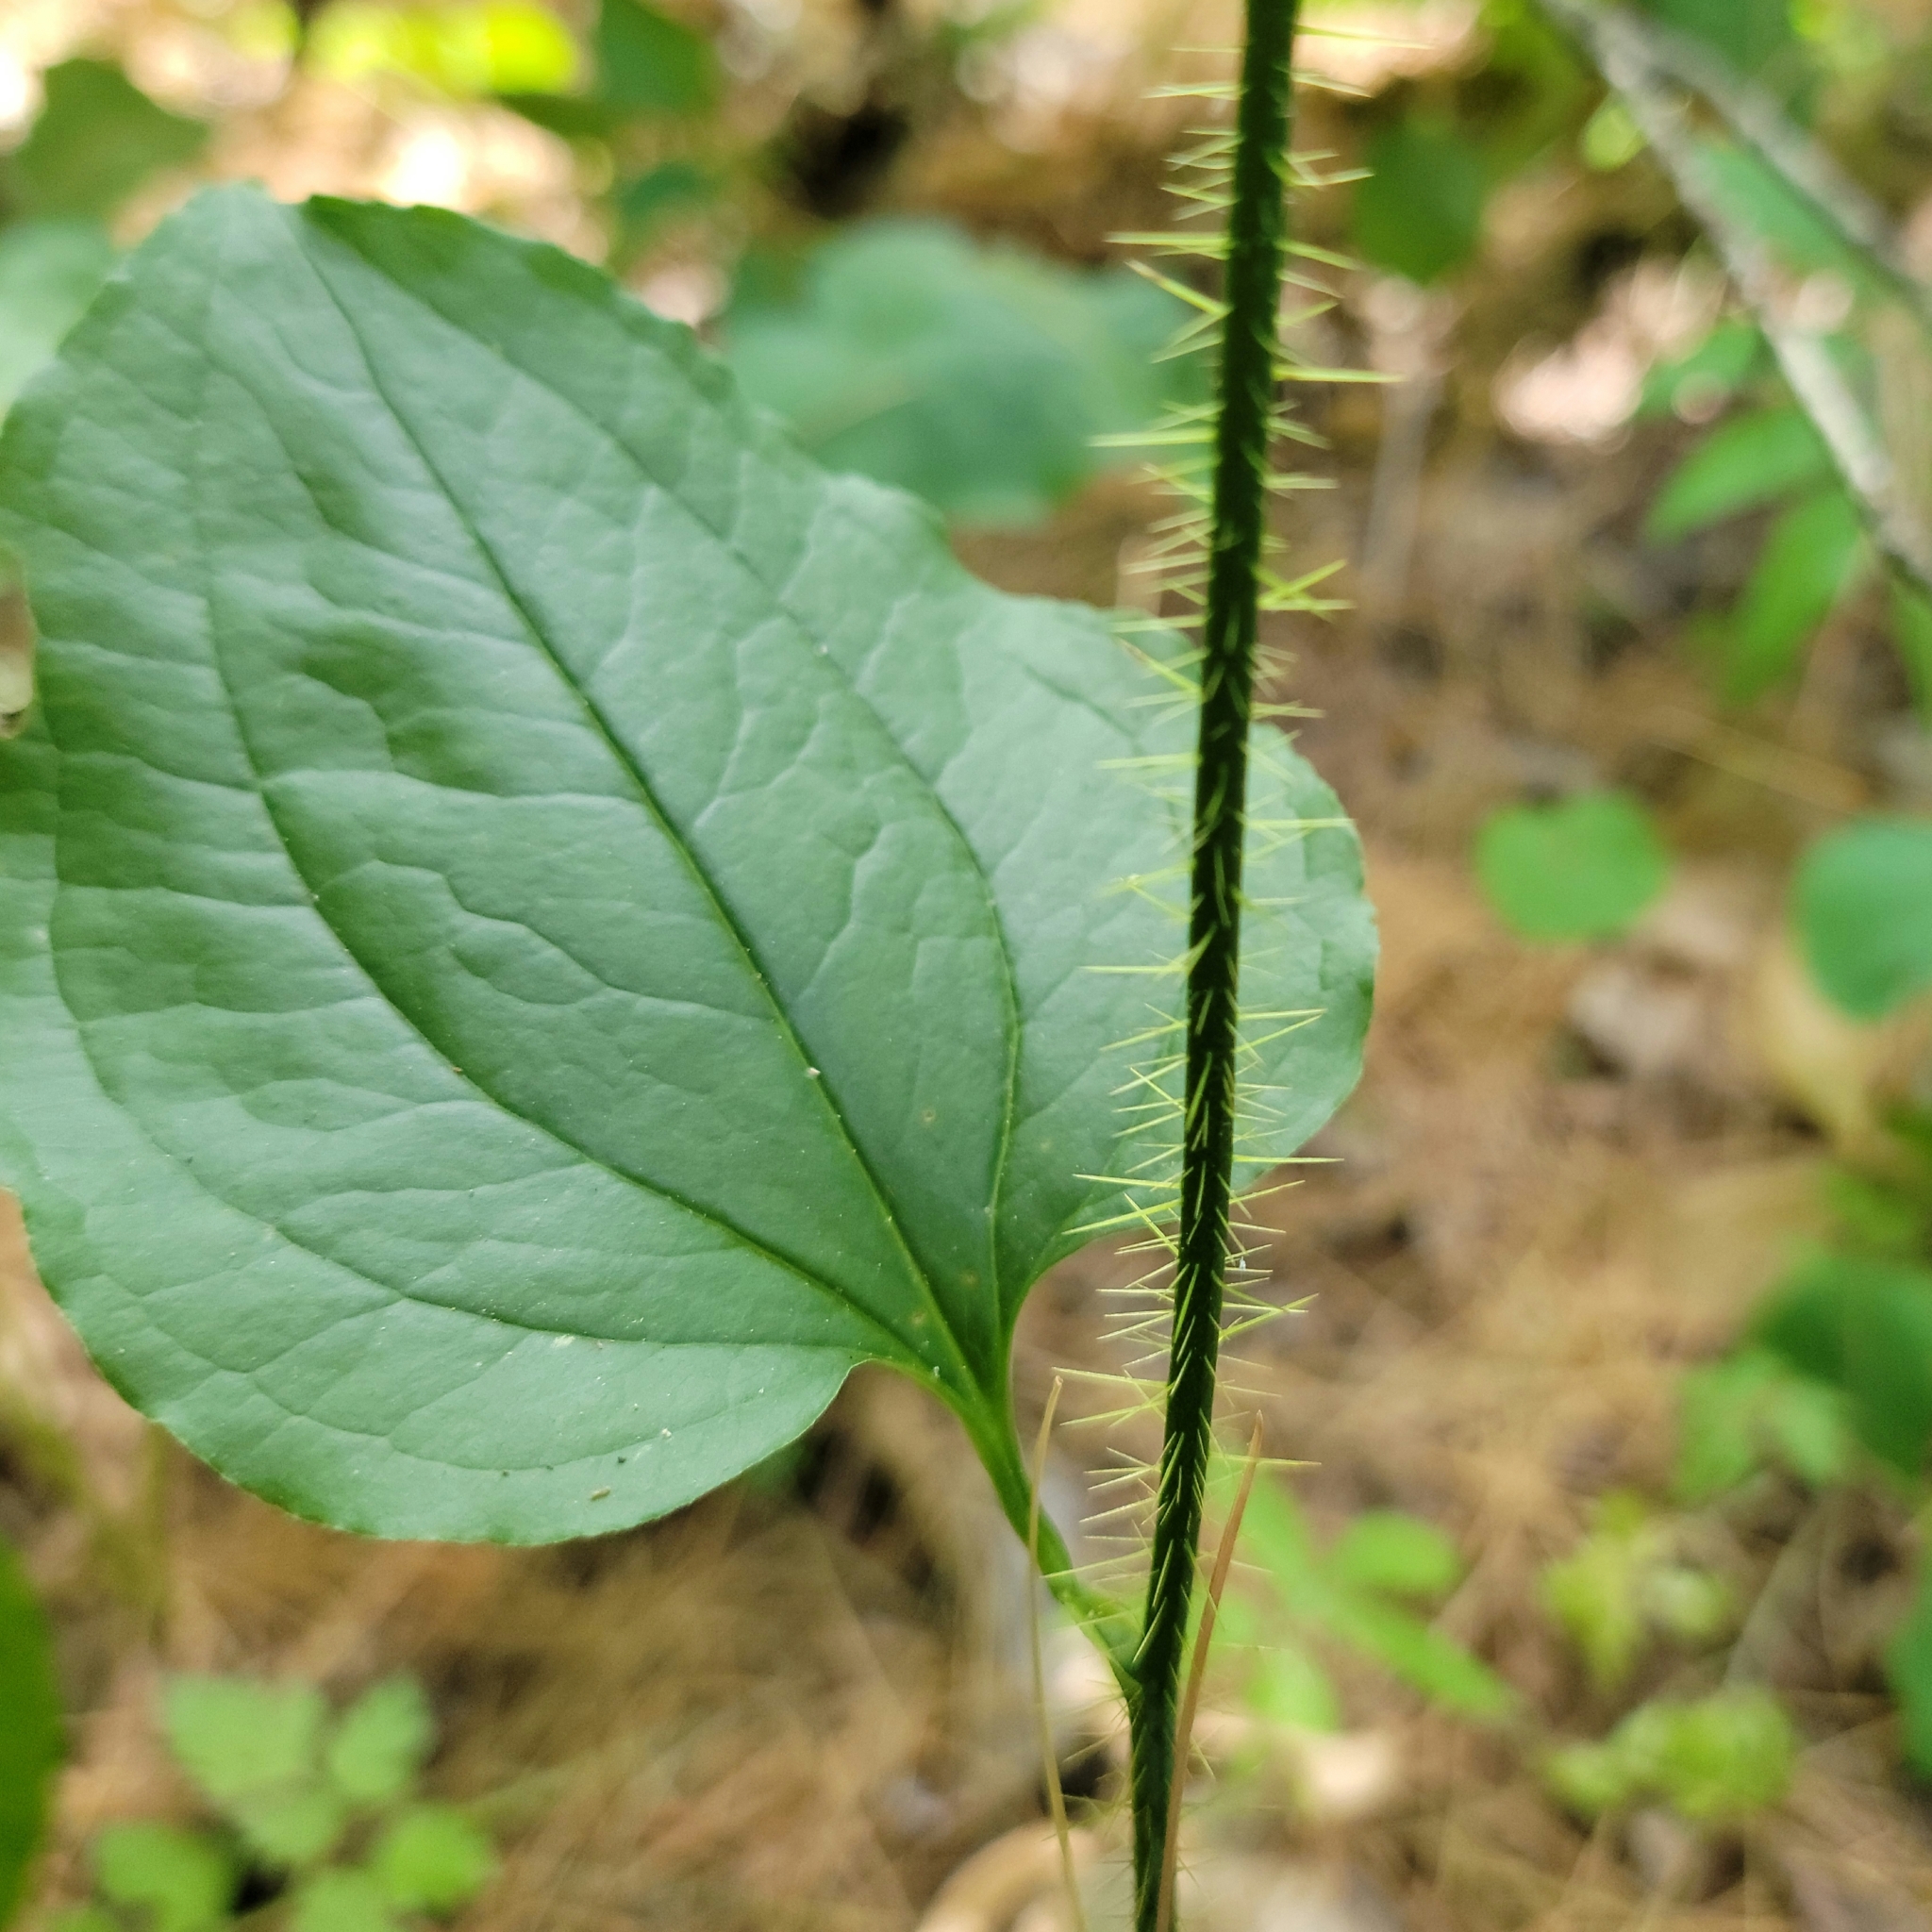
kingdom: Plantae
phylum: Tracheophyta
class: Liliopsida
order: Liliales
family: Smilacaceae
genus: Smilax
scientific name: Smilax tamnoides
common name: Hellfetter
